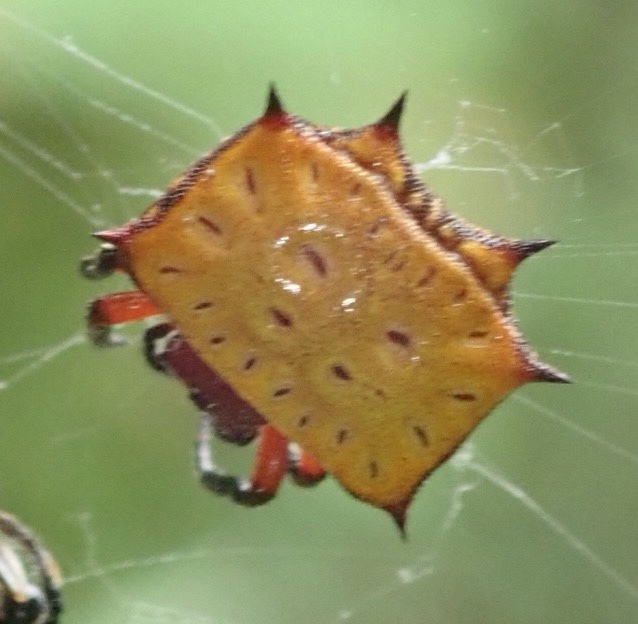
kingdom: Animalia
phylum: Arthropoda
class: Arachnida
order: Araneae
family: Araneidae
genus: Isoxya
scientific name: Isoxya tabulata
